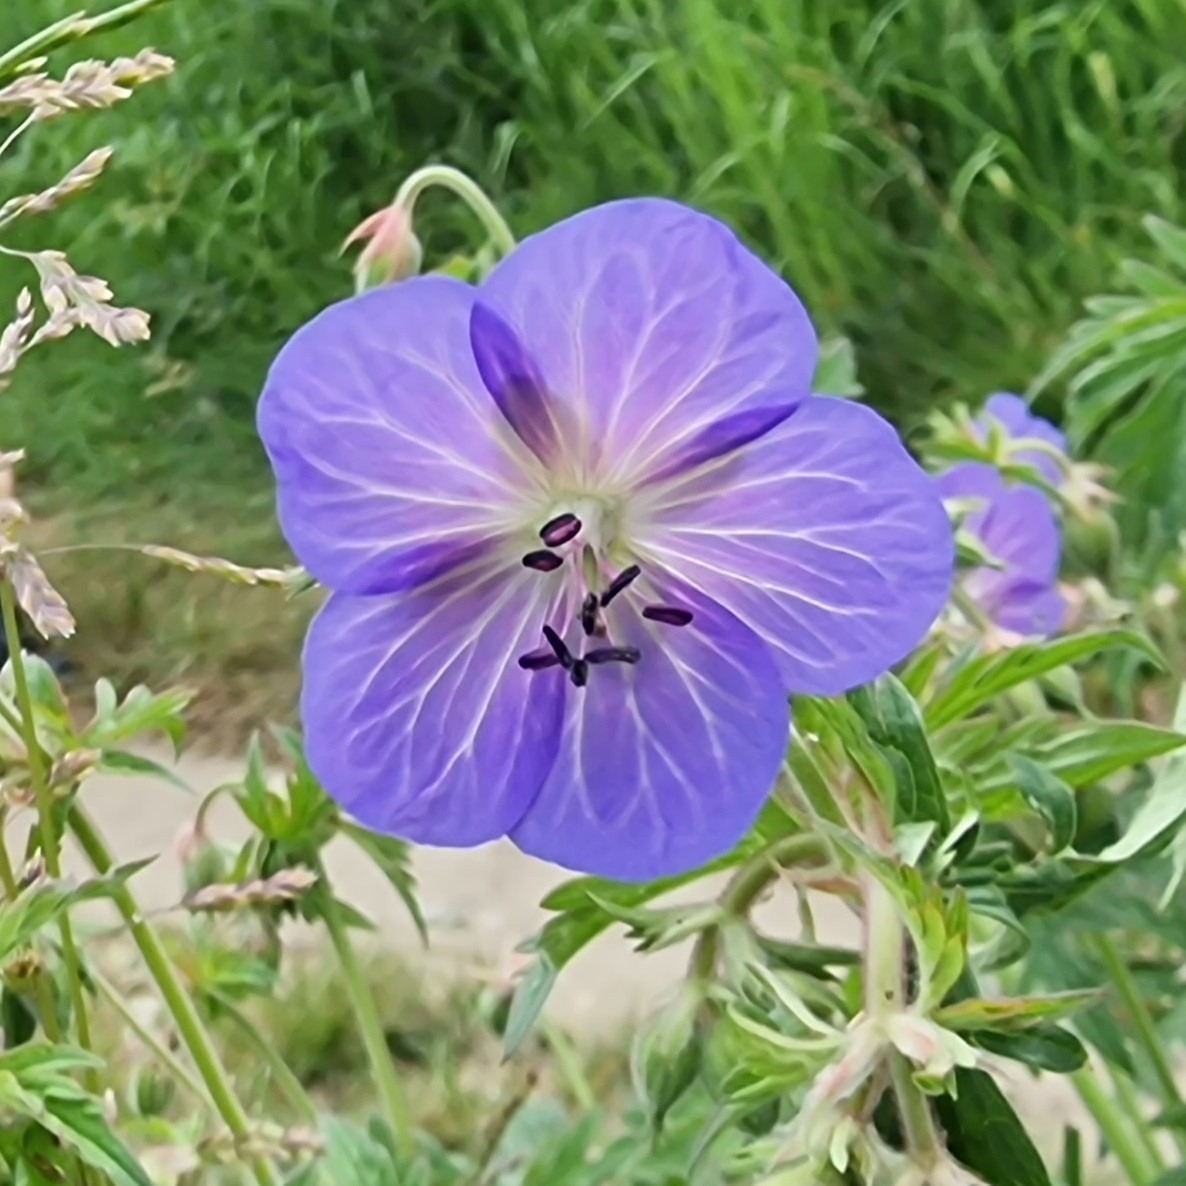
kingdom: Plantae
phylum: Tracheophyta
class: Magnoliopsida
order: Geraniales
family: Geraniaceae
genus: Geranium
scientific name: Geranium pratense
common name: Meadow crane's-bill
